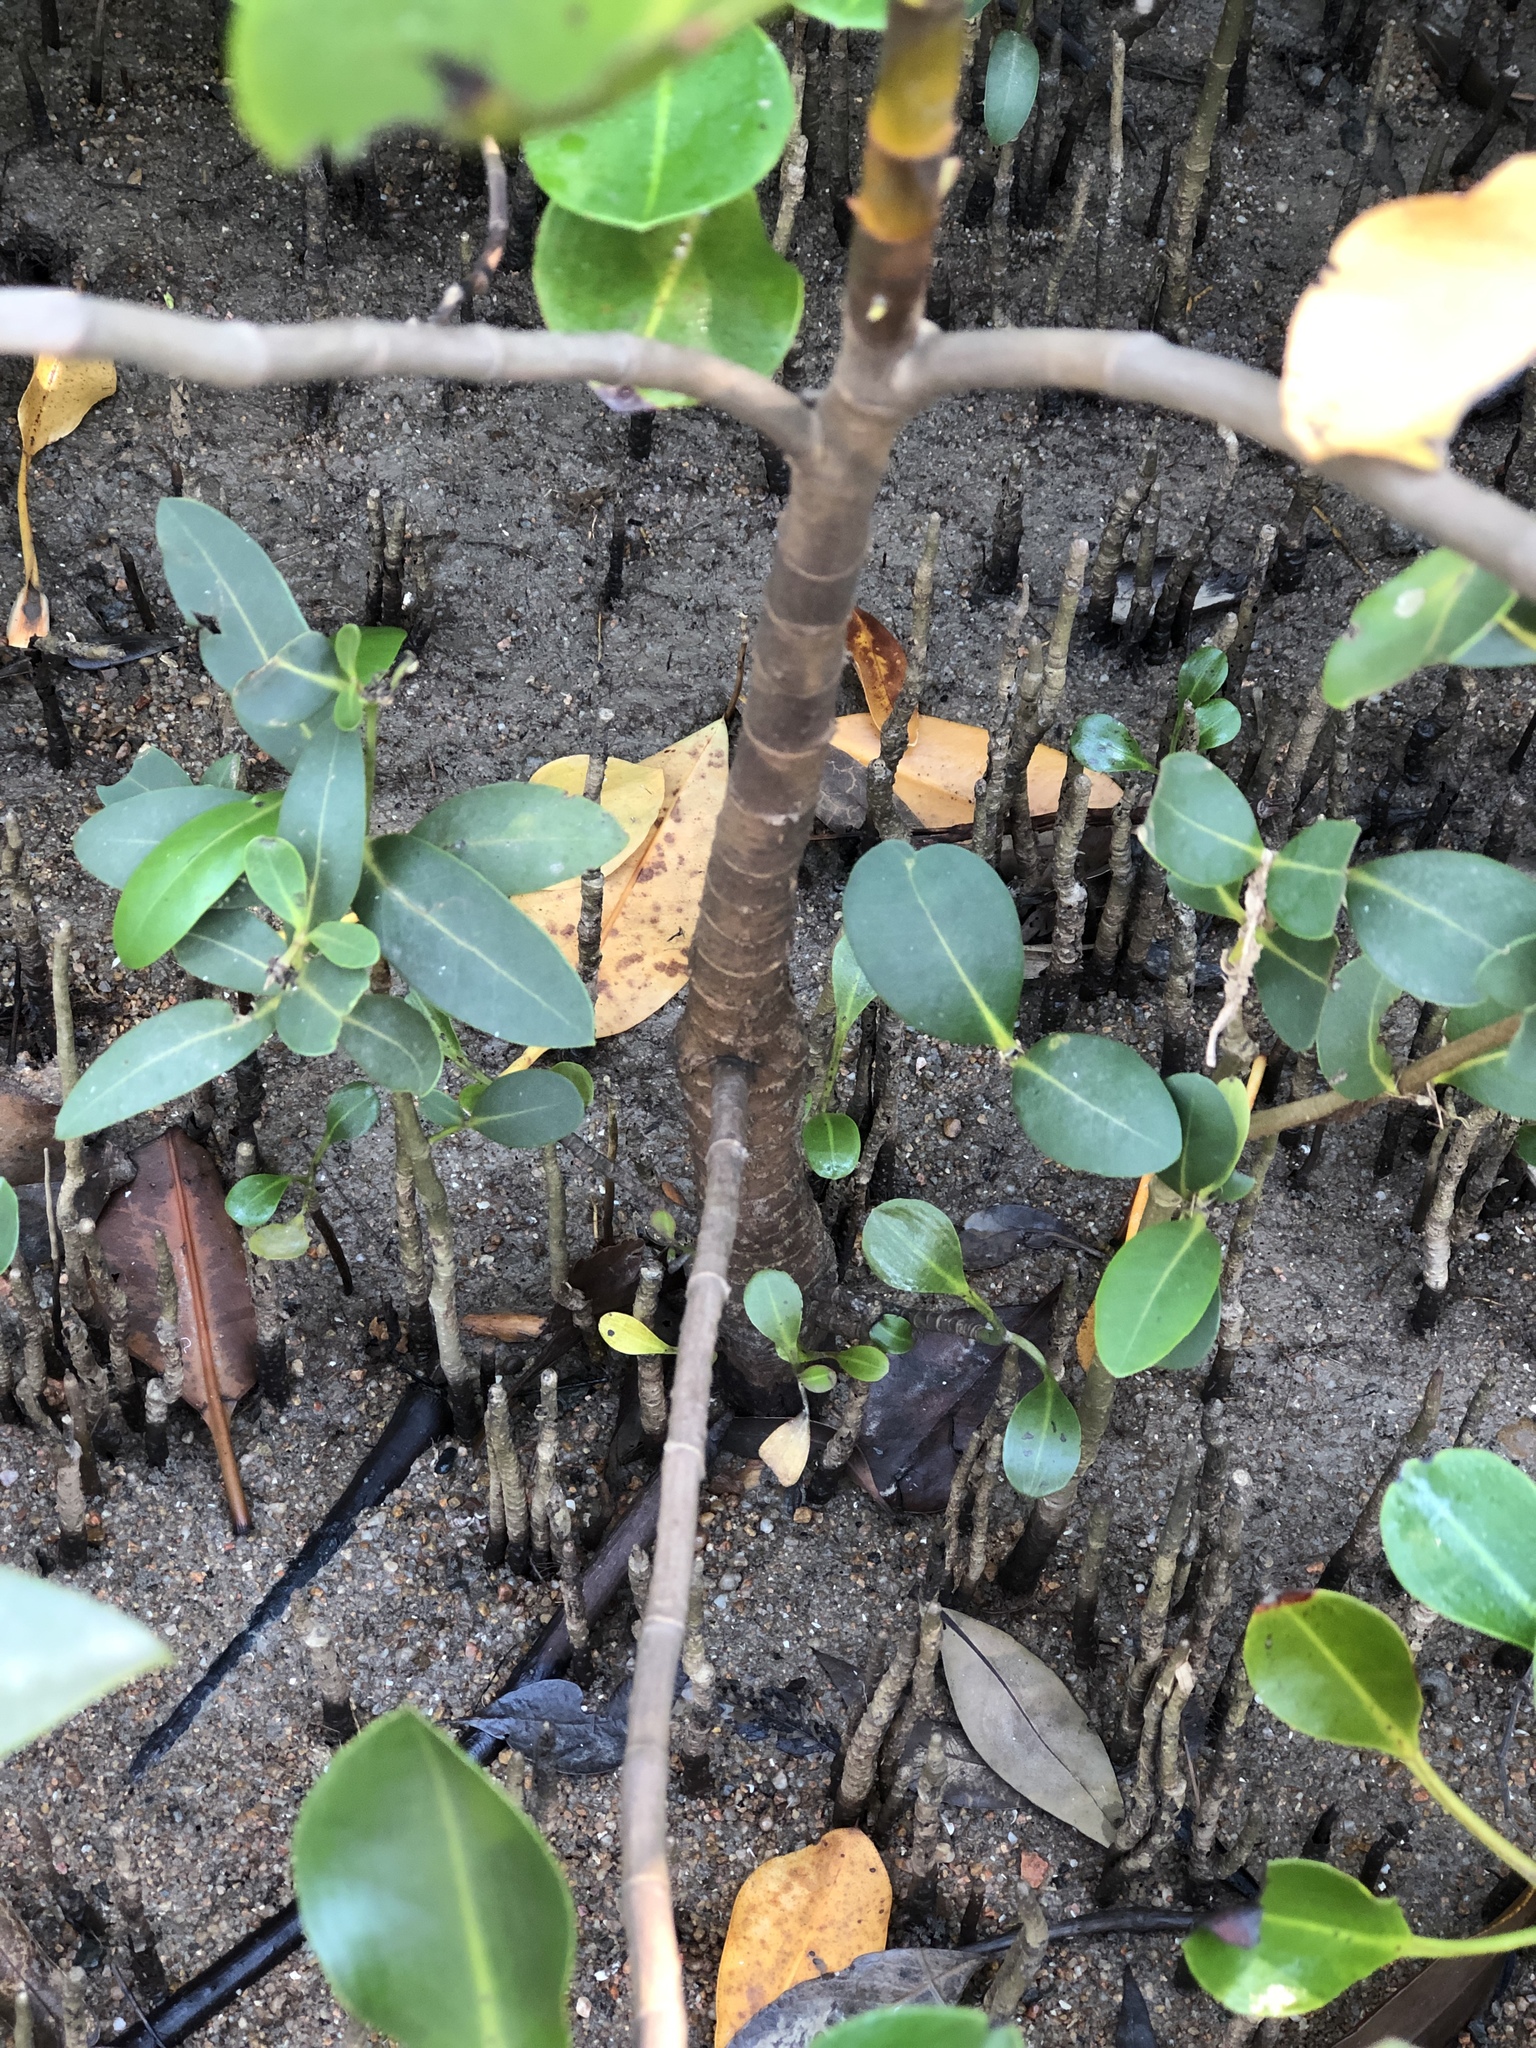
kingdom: Plantae
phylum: Tracheophyta
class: Magnoliopsida
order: Caryophyllales
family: Plumbaginaceae
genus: Aegialitis
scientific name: Aegialitis annulata
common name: Club mangrove
